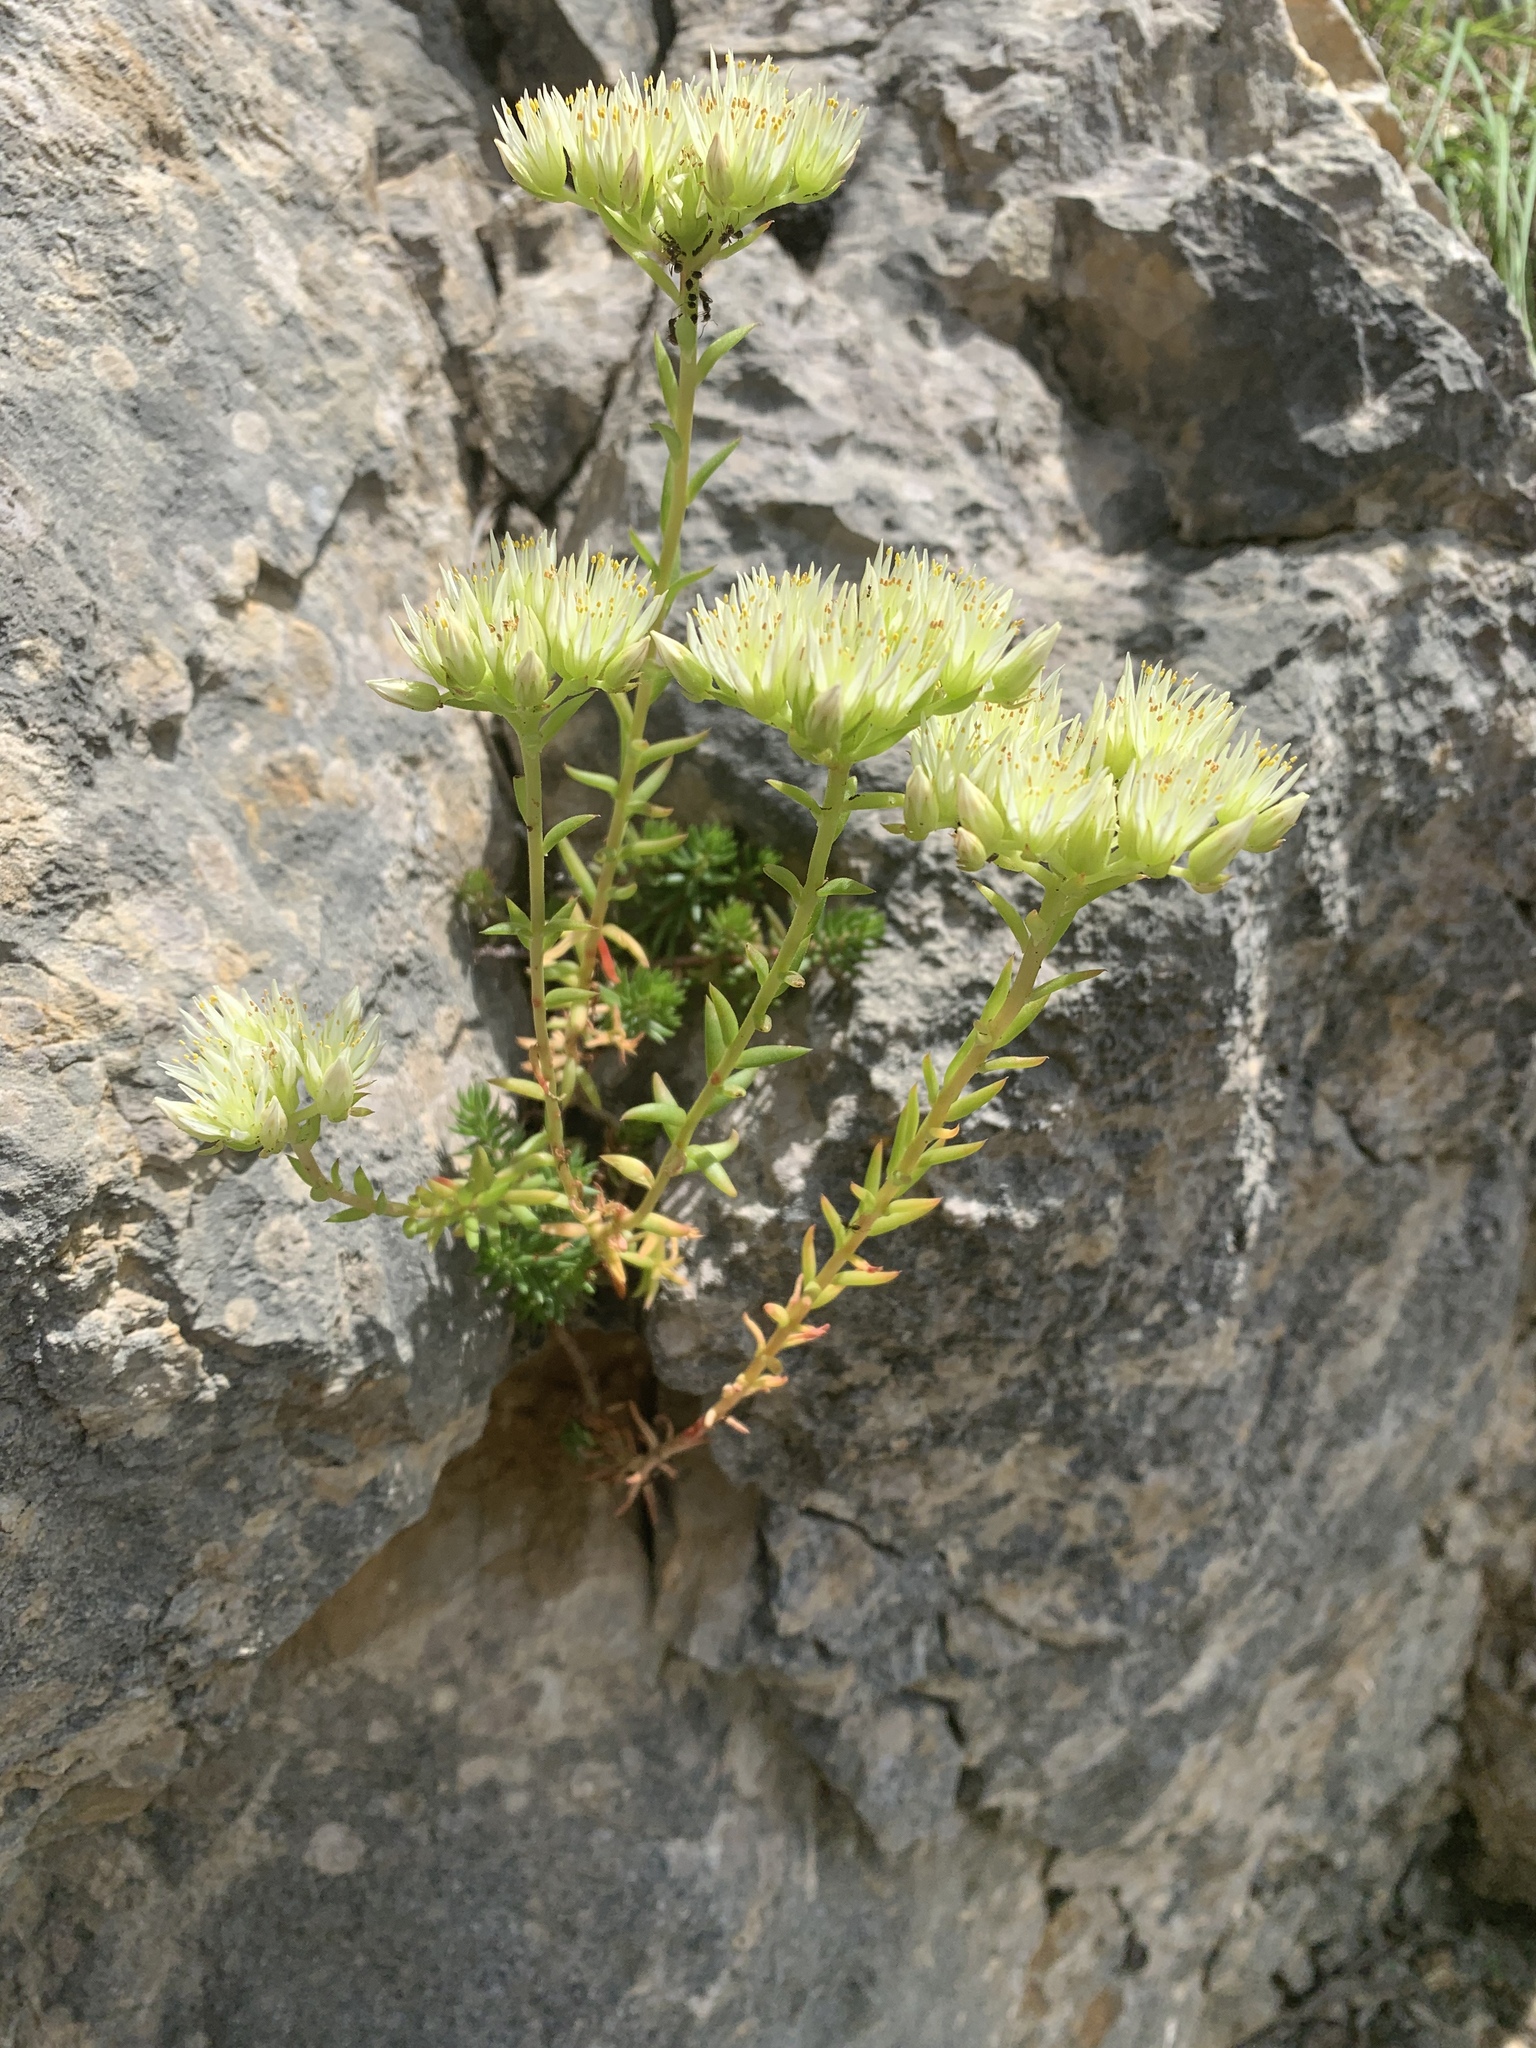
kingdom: Plantae
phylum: Tracheophyta
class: Magnoliopsida
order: Saxifragales
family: Crassulaceae
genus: Petrosedum
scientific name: Petrosedum ochroleucum
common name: European stonecrop
